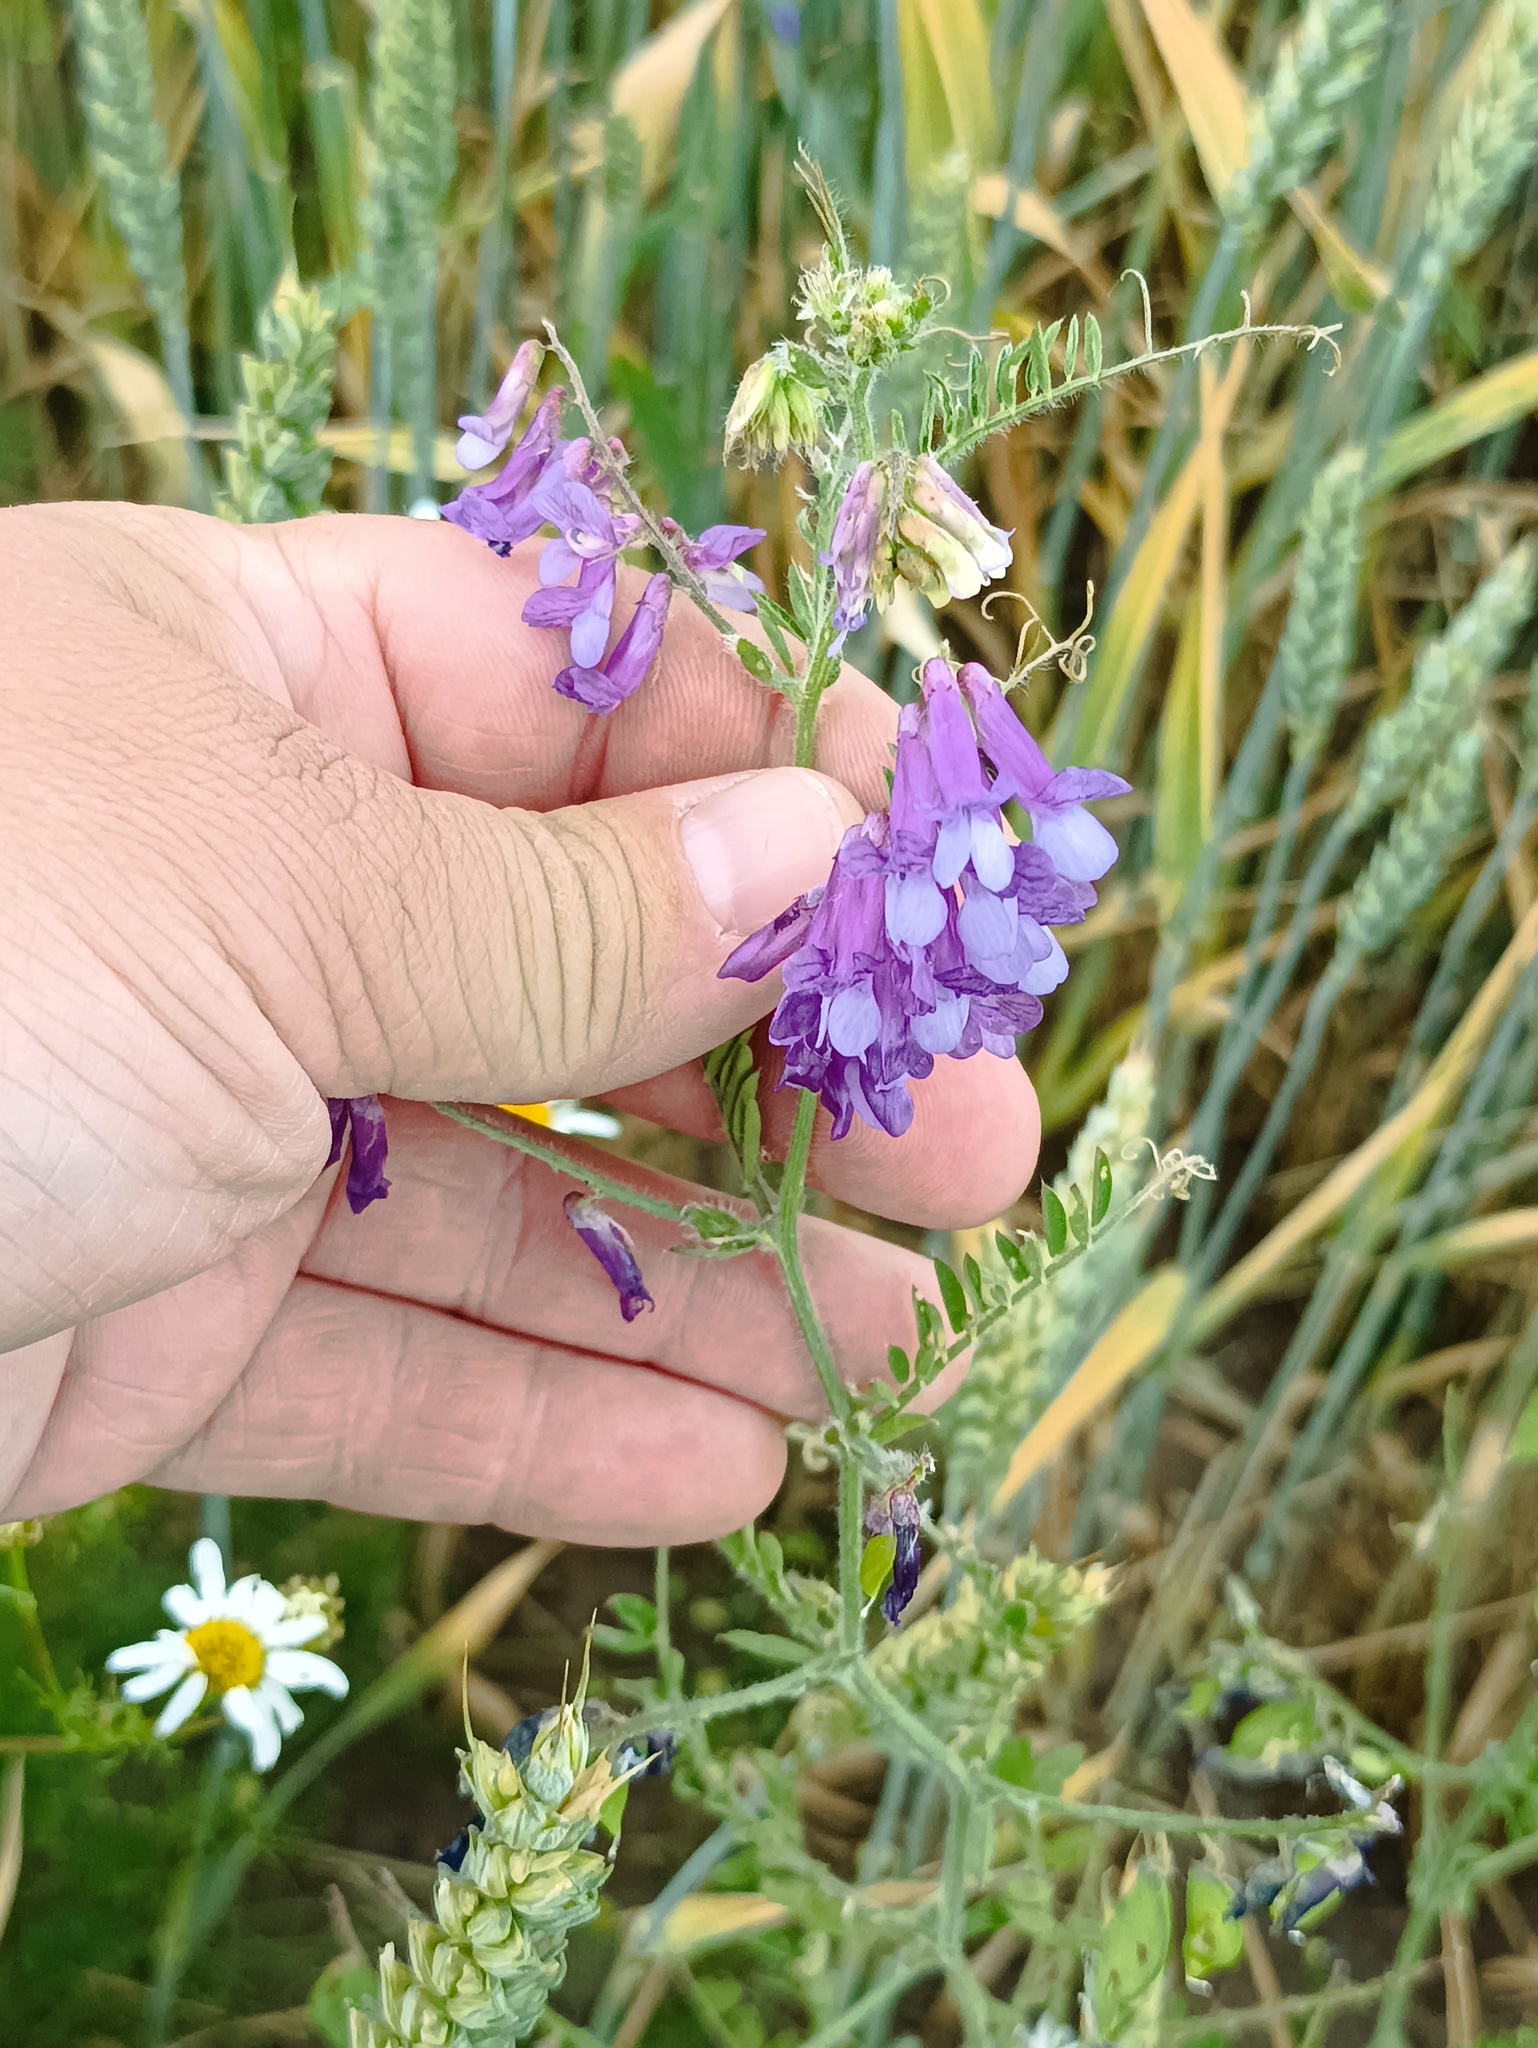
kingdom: Plantae
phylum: Tracheophyta
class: Magnoliopsida
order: Fabales
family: Fabaceae
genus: Vicia
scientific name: Vicia cracca
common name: Bird vetch
